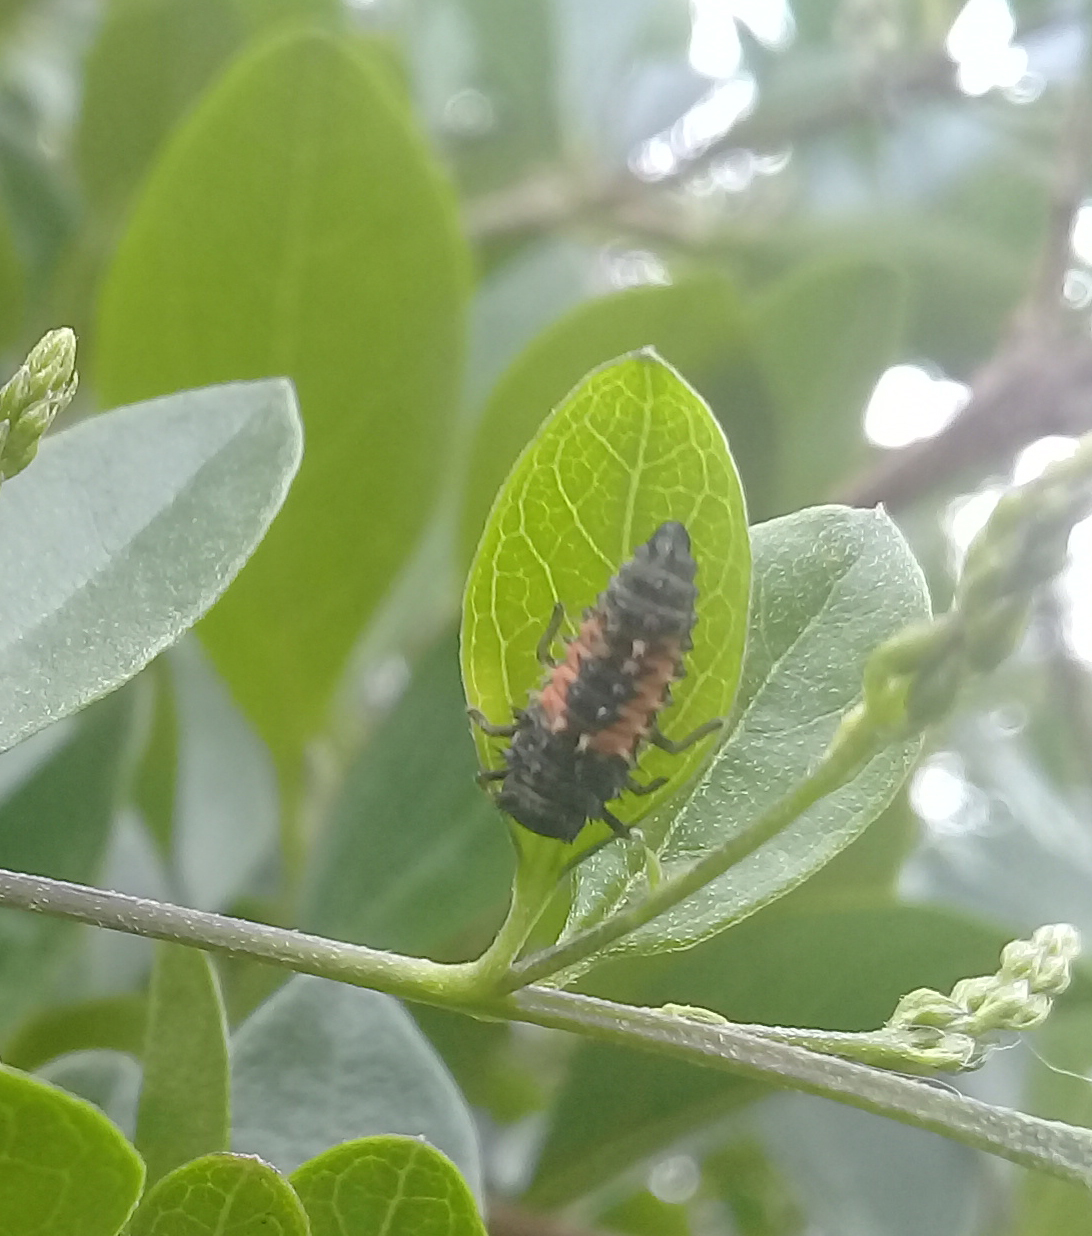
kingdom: Animalia
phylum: Arthropoda
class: Insecta
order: Coleoptera
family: Coccinellidae
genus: Harmonia
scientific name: Harmonia axyridis
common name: Harlequin ladybird
